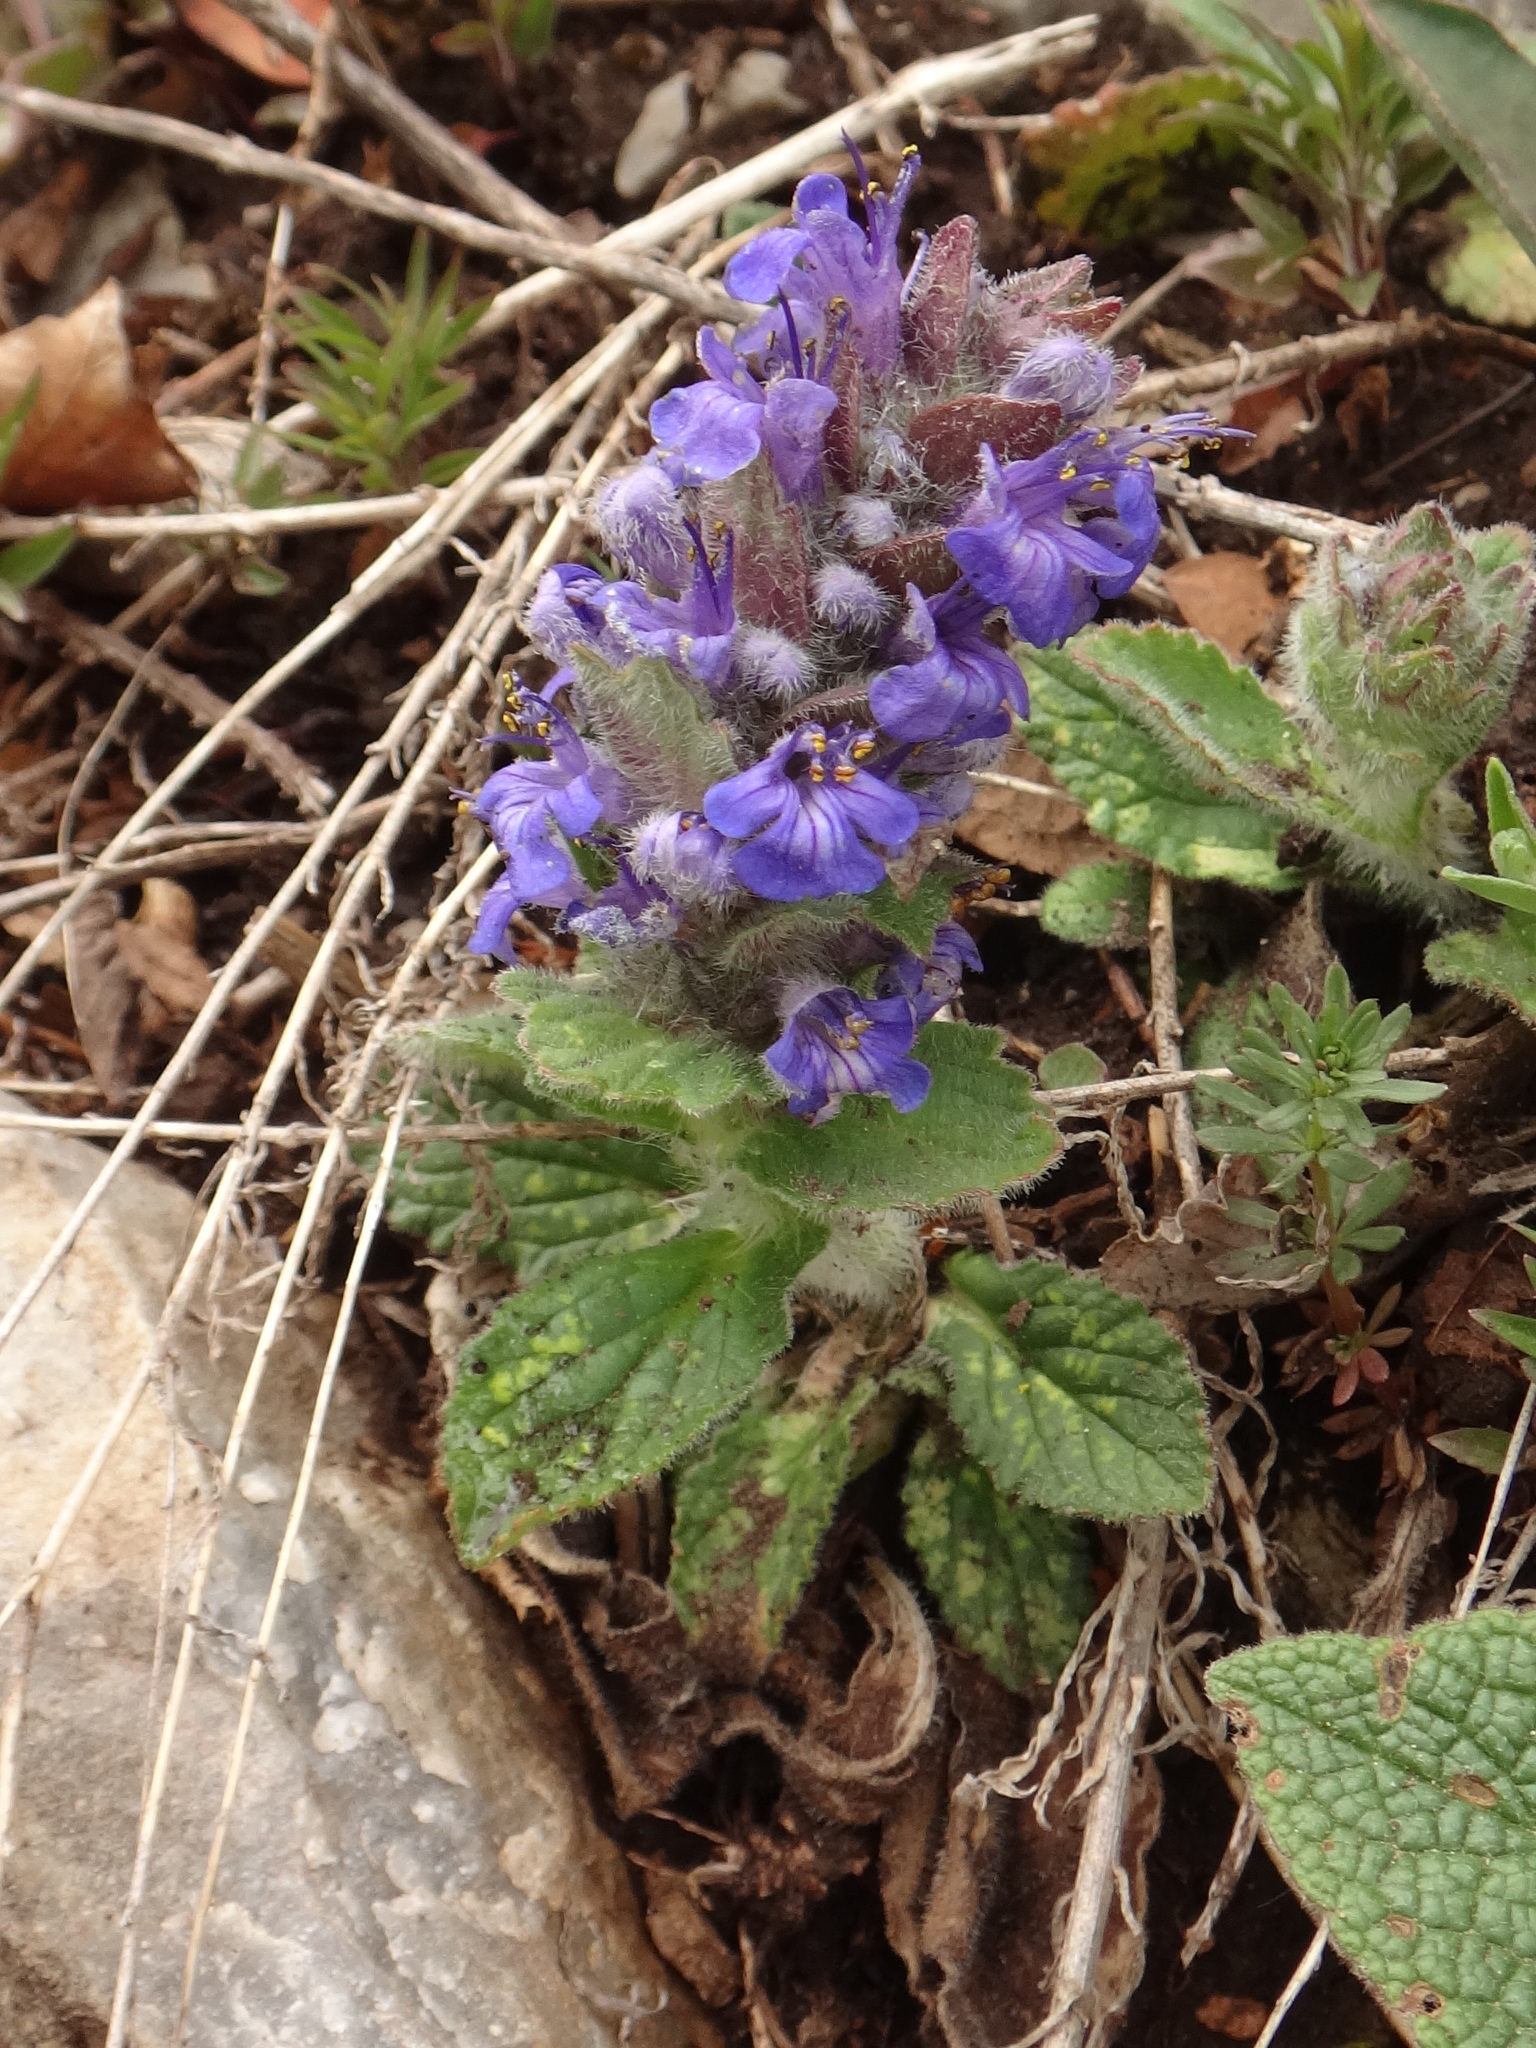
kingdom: Plantae
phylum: Tracheophyta
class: Magnoliopsida
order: Lamiales
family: Lamiaceae
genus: Ajuga
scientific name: Ajuga genevensis
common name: Blue bugle
